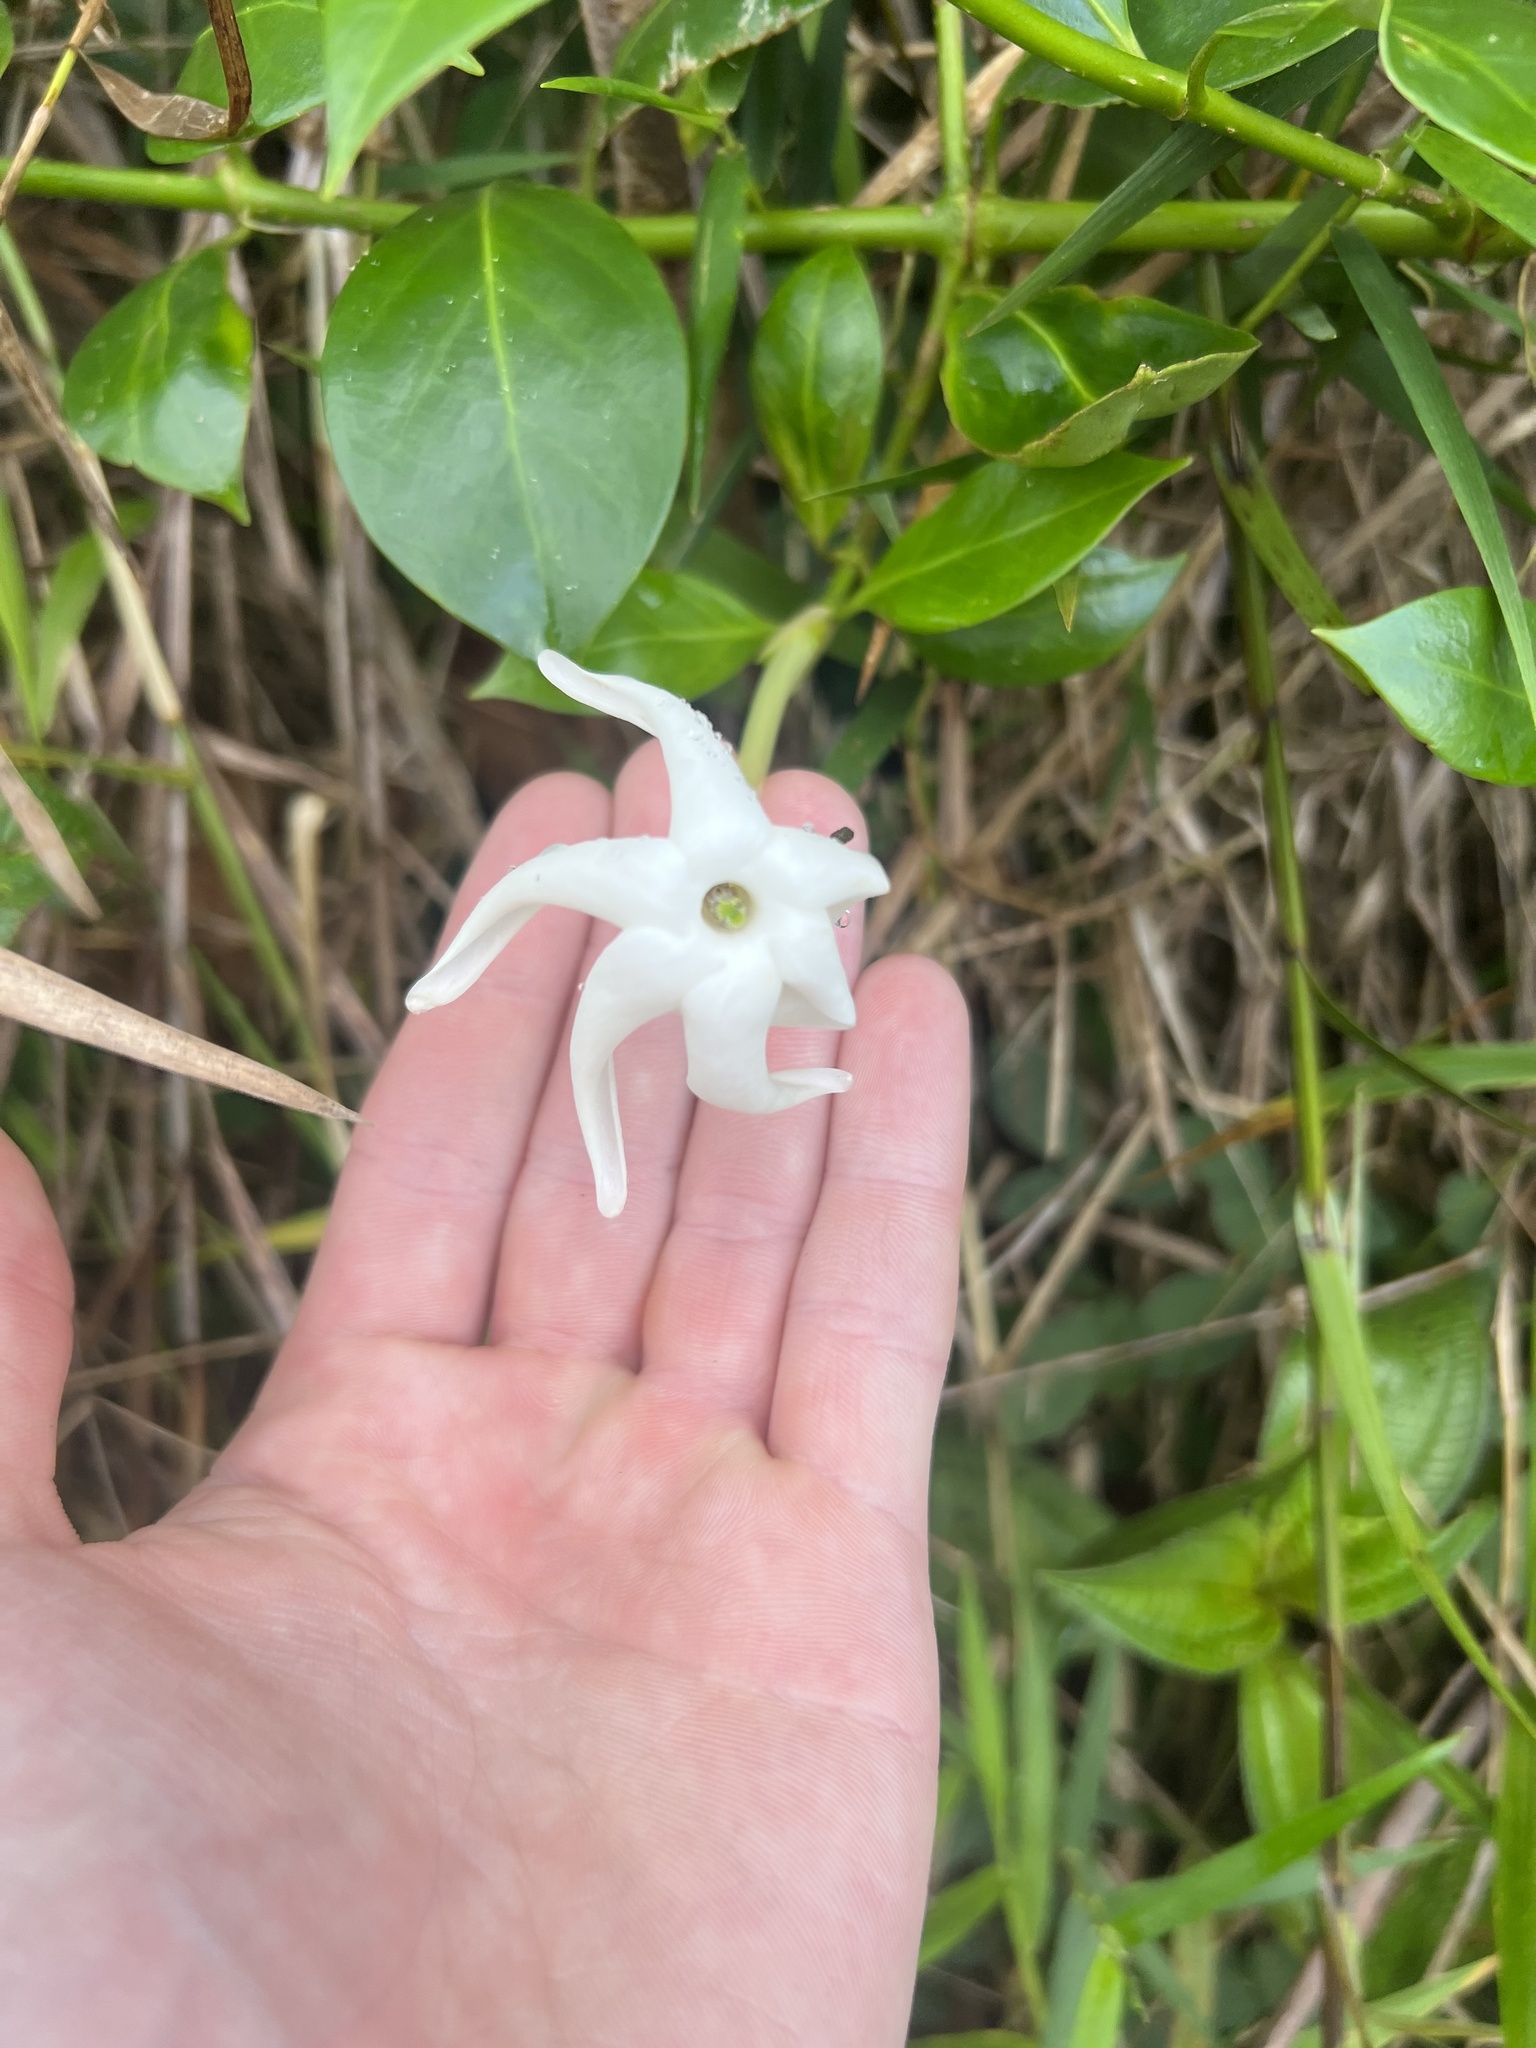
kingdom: Plantae
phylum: Tracheophyta
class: Magnoliopsida
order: Gentianales
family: Rubiaceae
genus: Hillia
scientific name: Hillia parasitica
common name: Morning star
